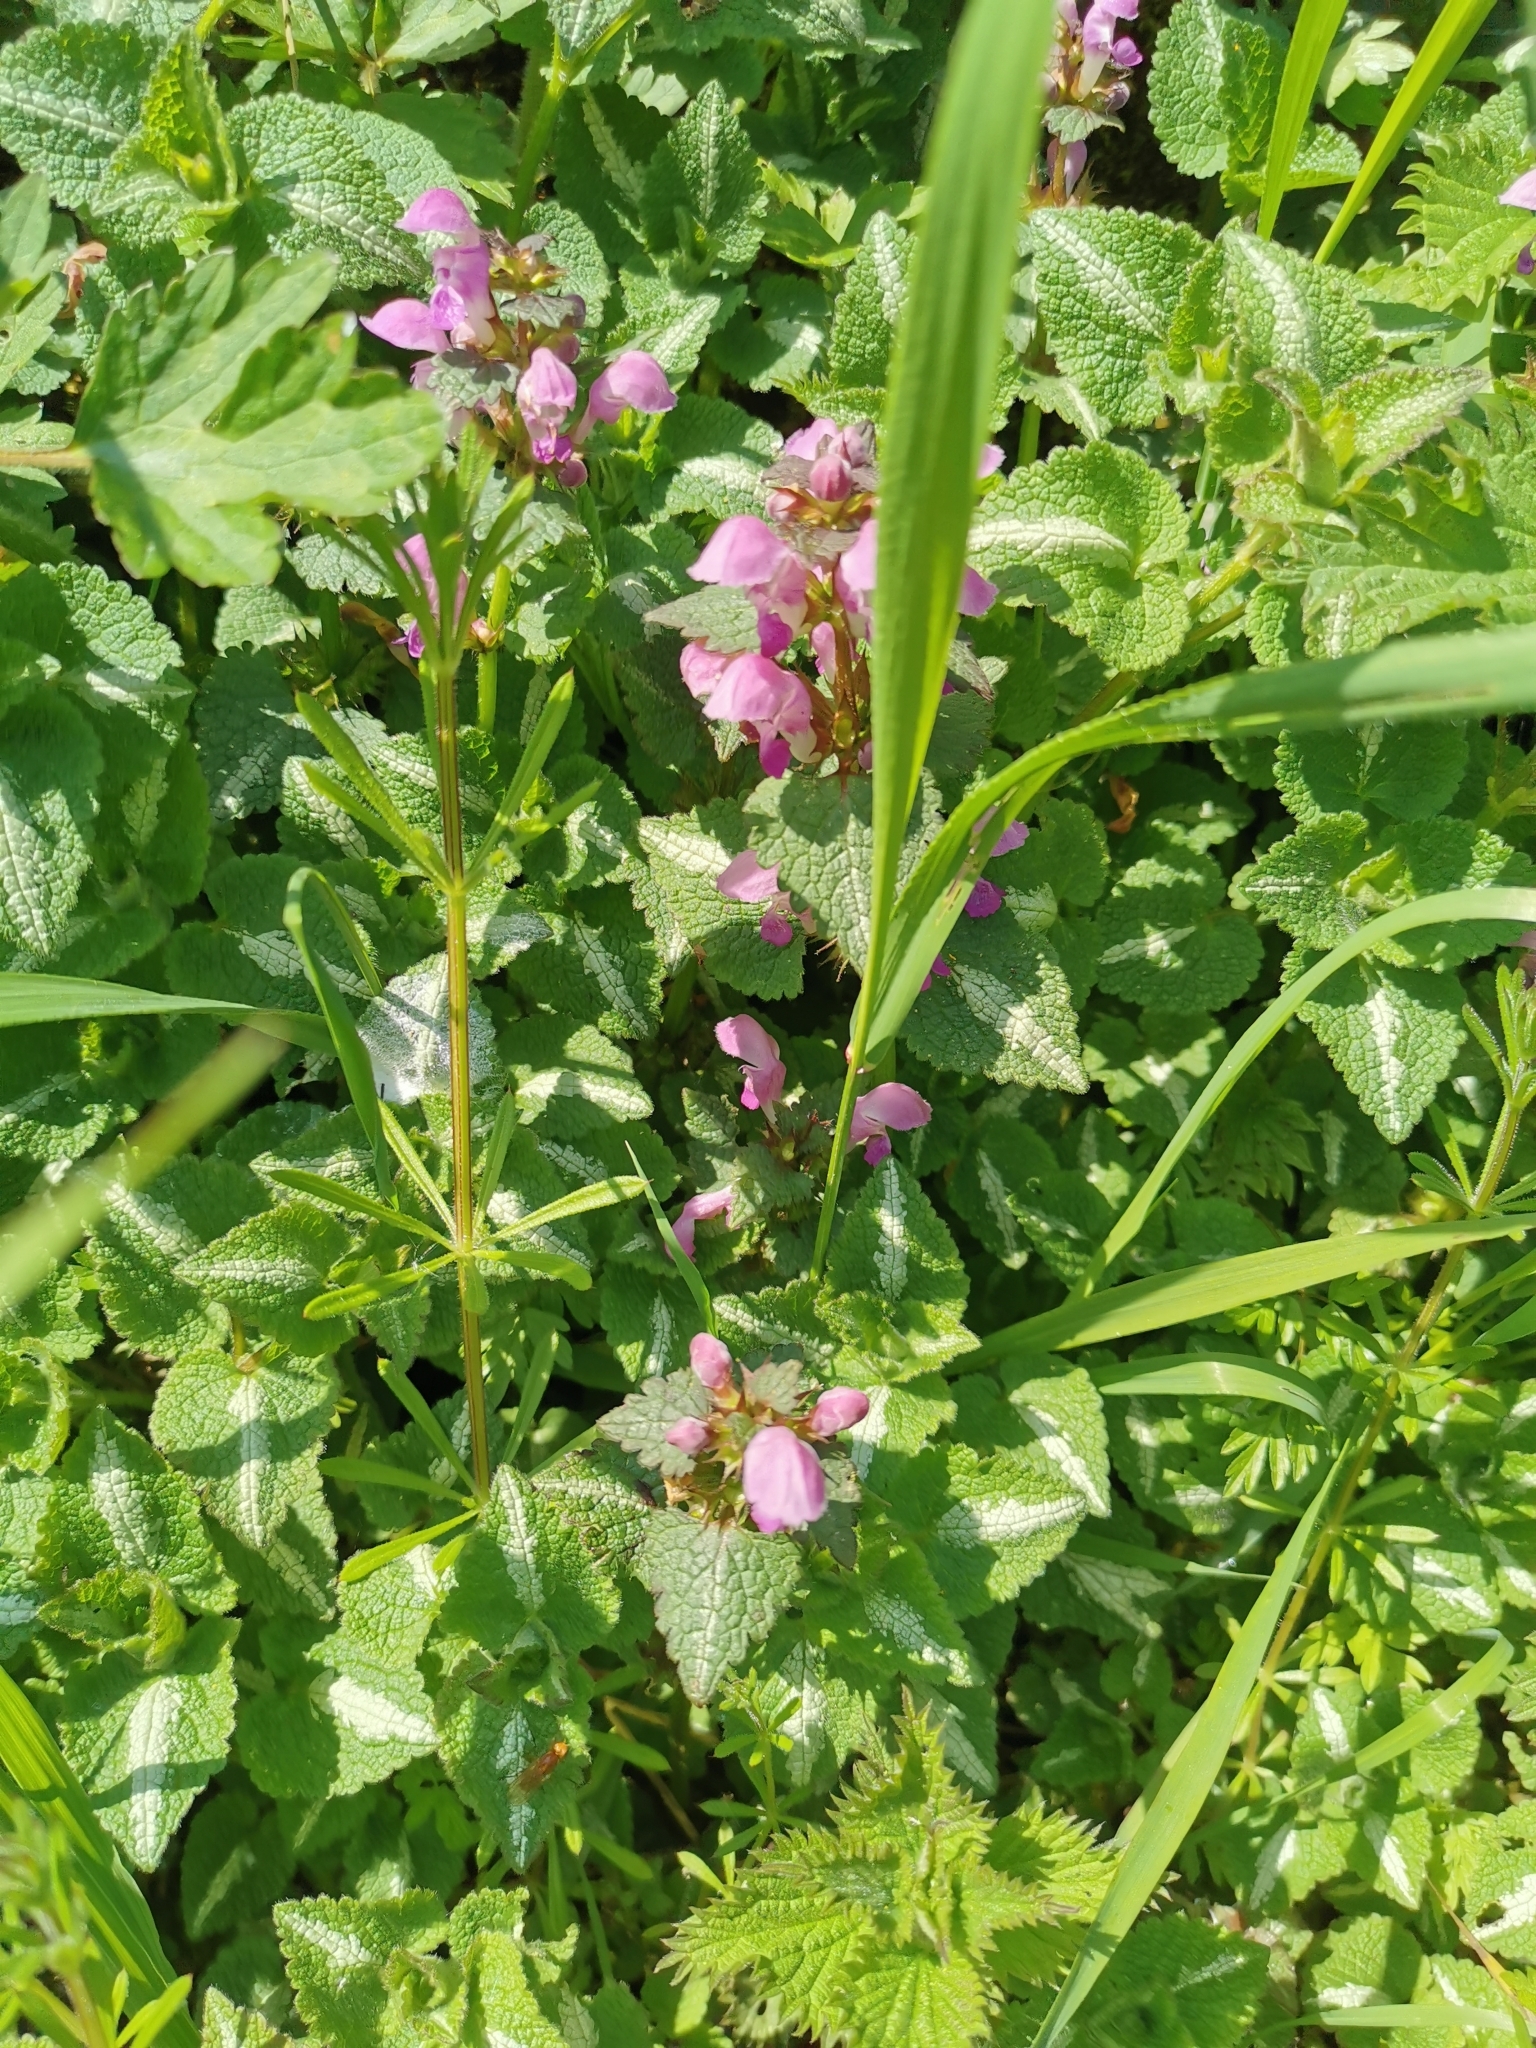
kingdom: Plantae
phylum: Tracheophyta
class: Magnoliopsida
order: Lamiales
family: Lamiaceae
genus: Lamium
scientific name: Lamium maculatum
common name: Spotted dead-nettle
